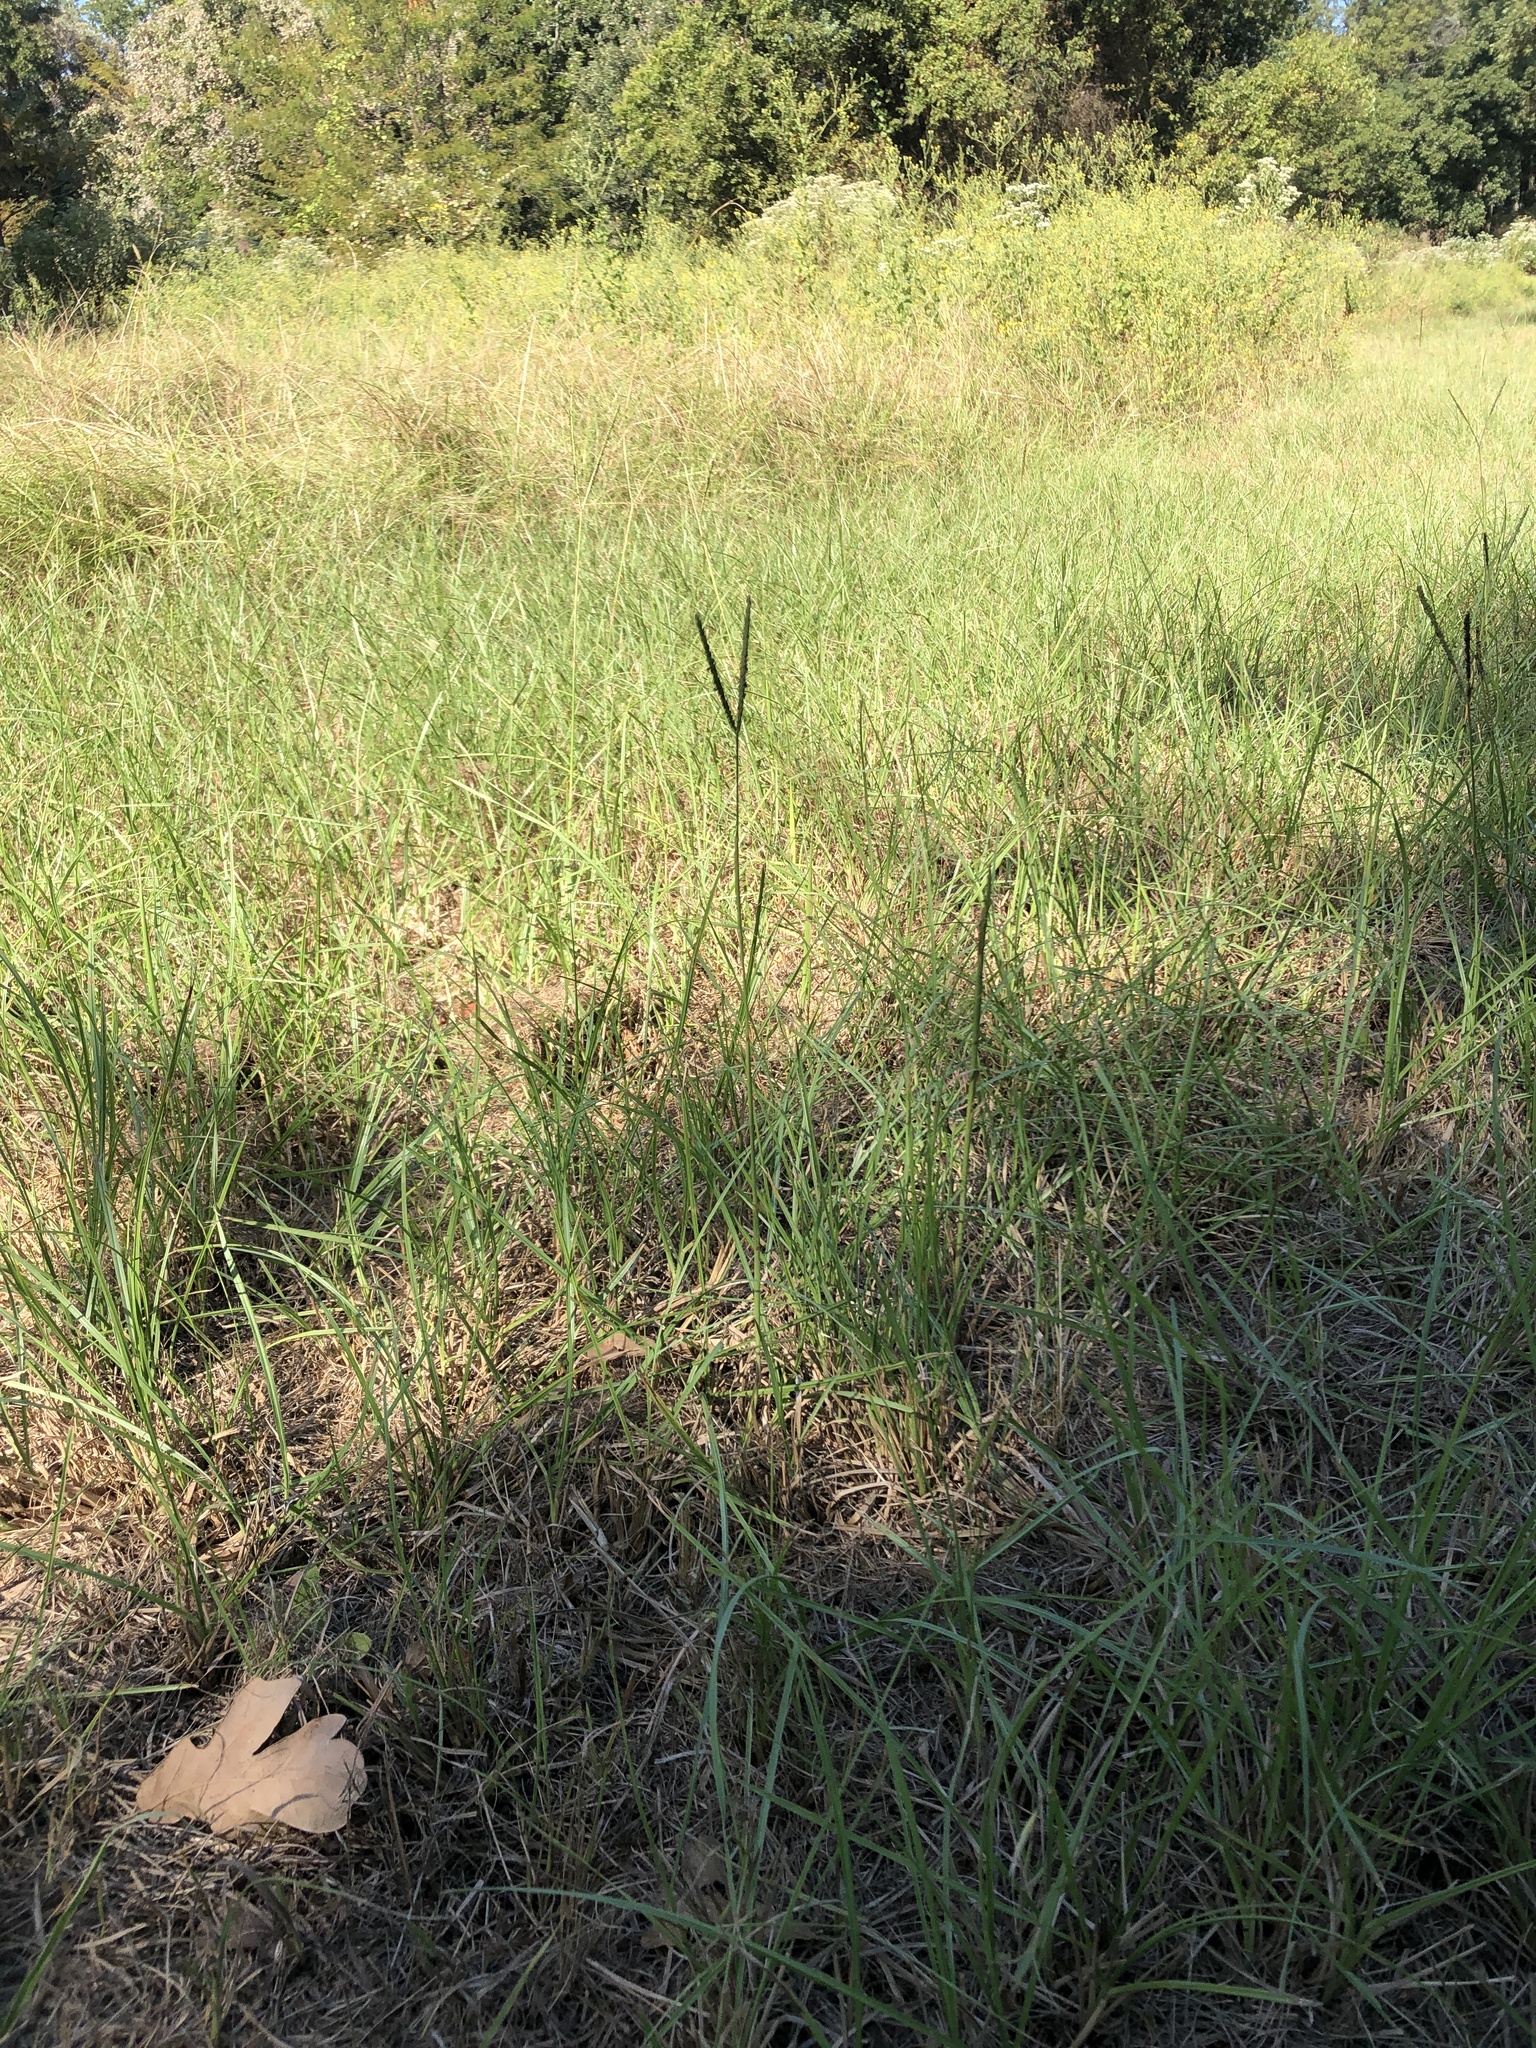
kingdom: Plantae
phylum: Tracheophyta
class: Liliopsida
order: Poales
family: Poaceae
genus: Paspalum
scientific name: Paspalum notatum
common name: Bahiagrass
